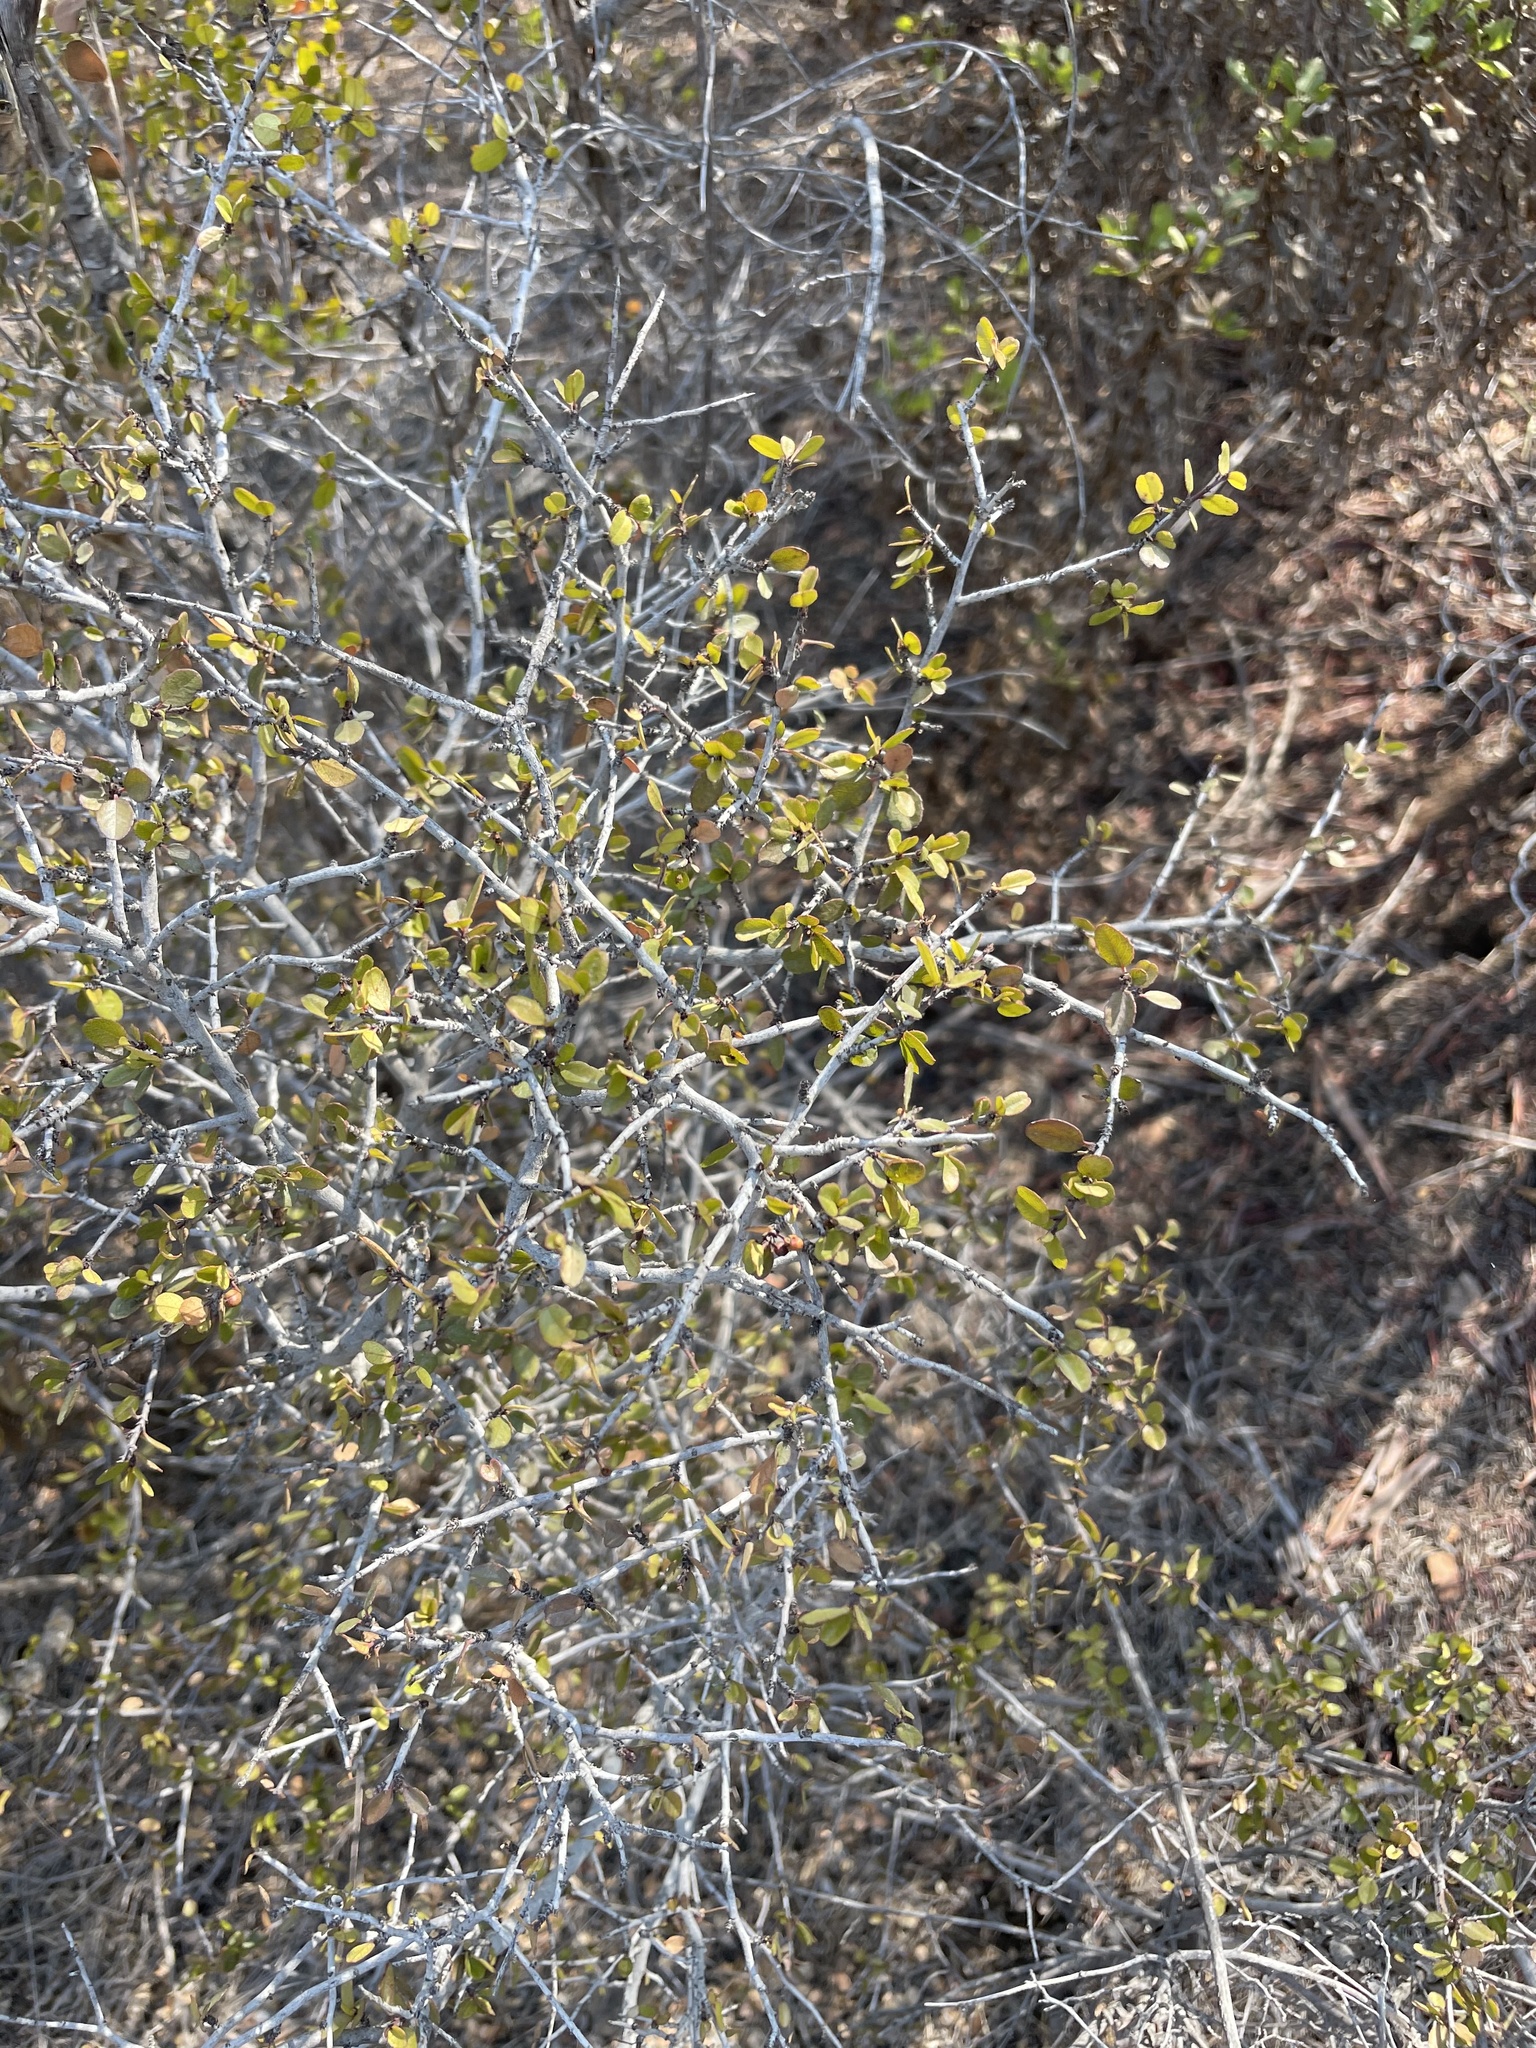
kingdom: Plantae
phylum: Tracheophyta
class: Magnoliopsida
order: Rosales
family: Rhamnaceae
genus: Endotropis
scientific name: Endotropis crocea
